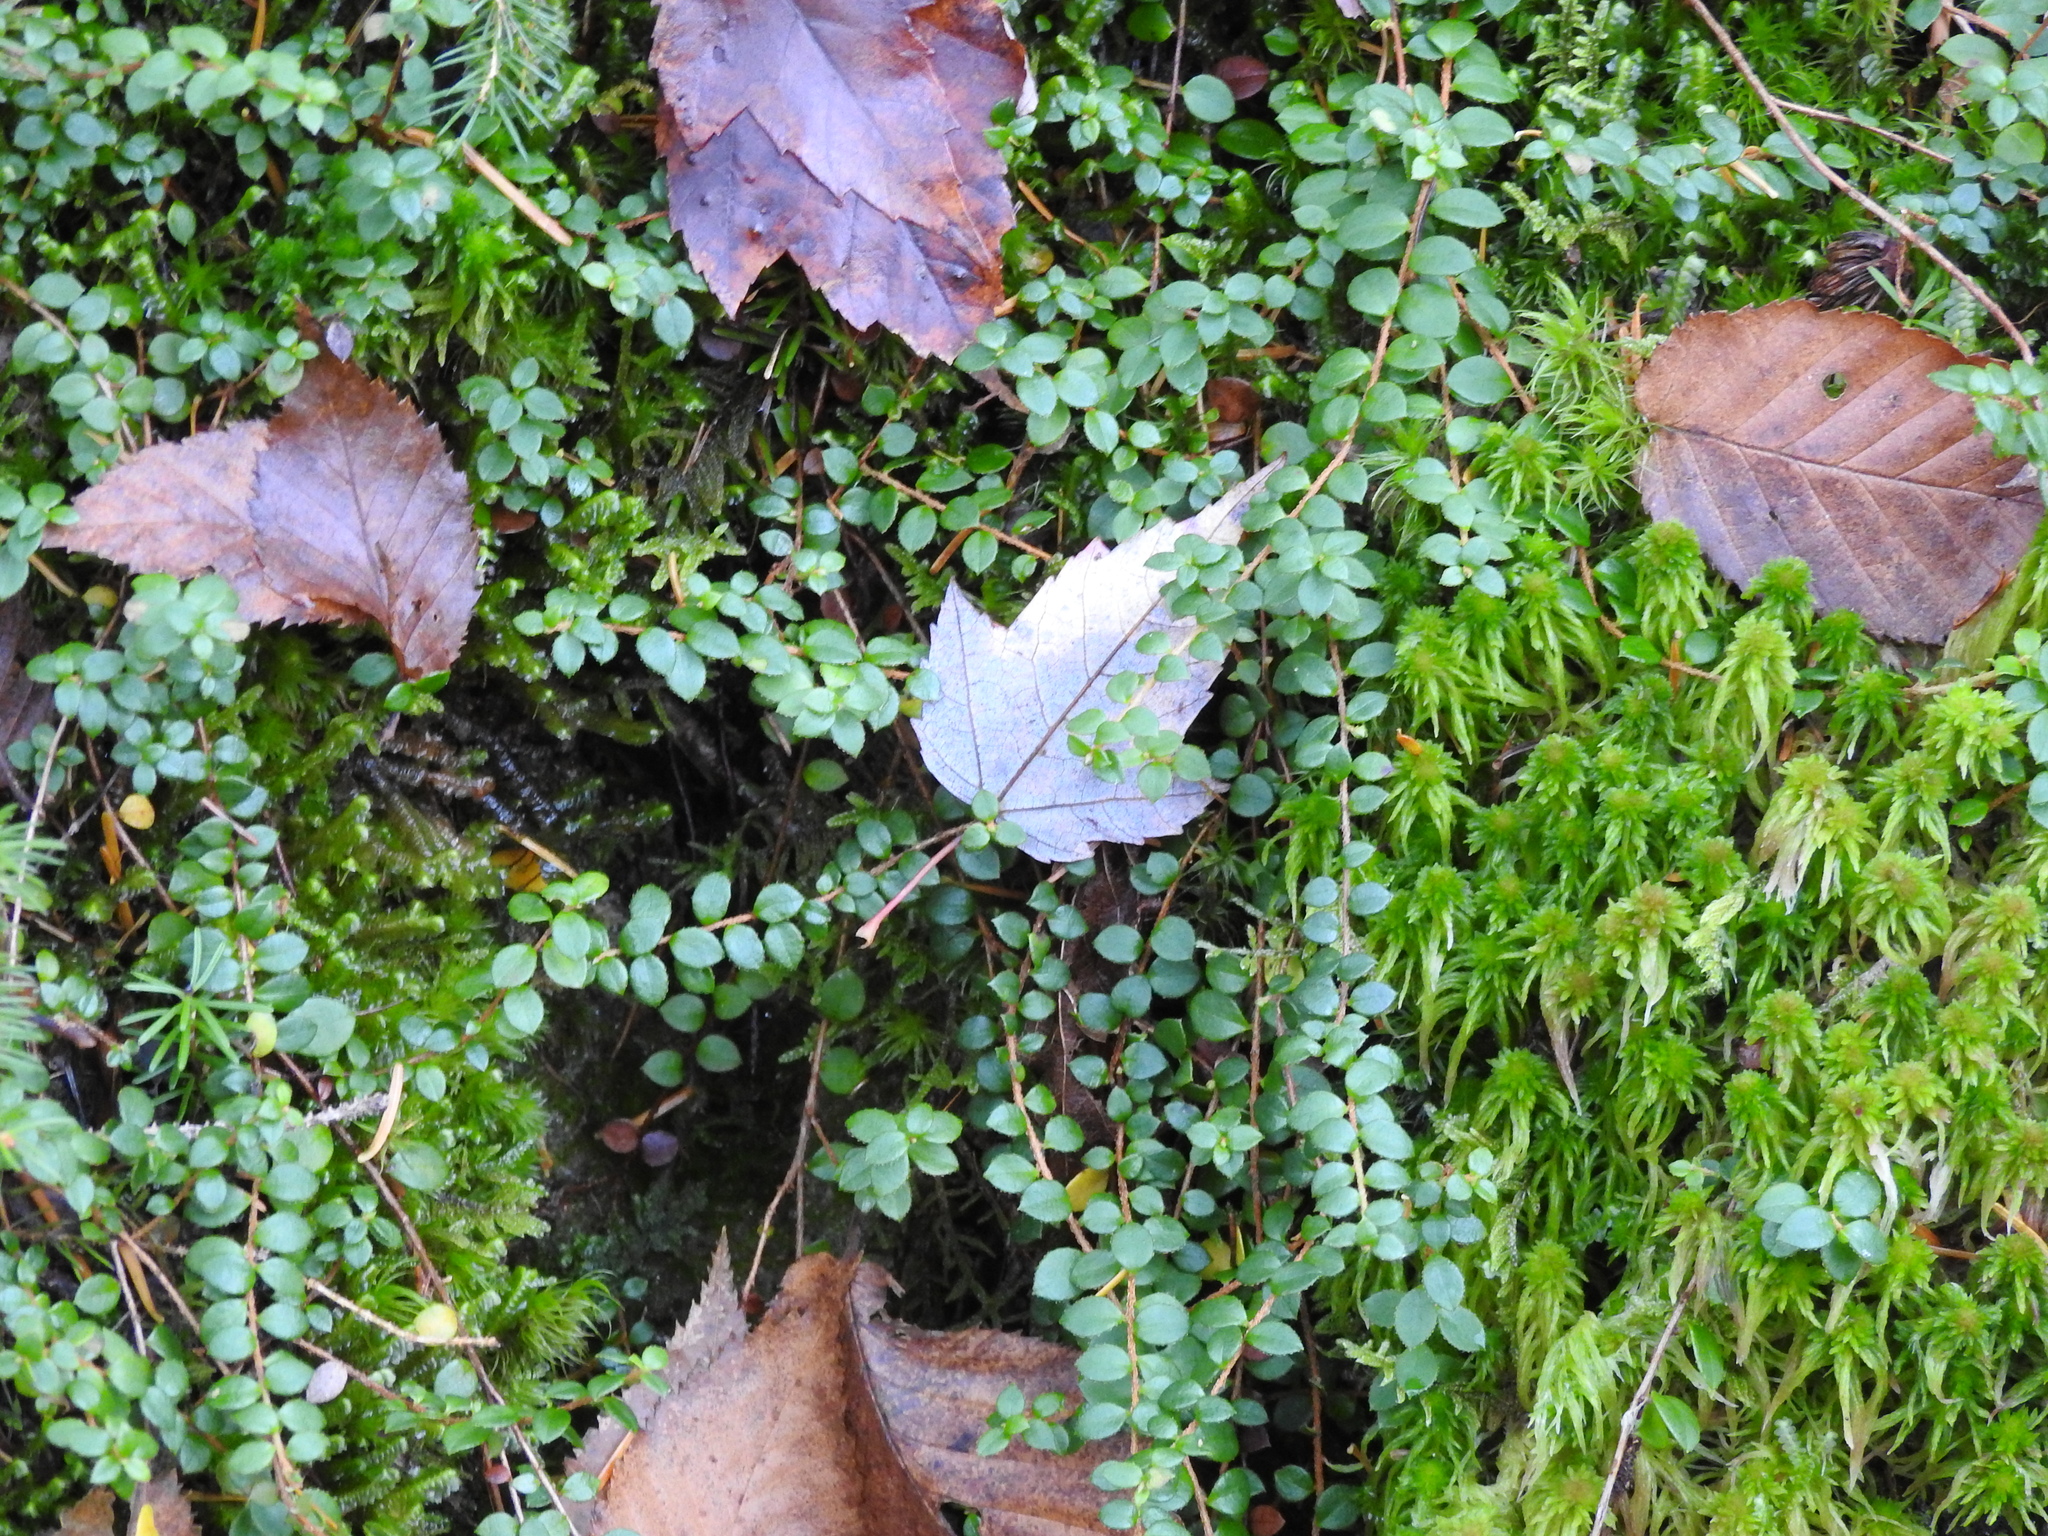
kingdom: Plantae
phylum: Tracheophyta
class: Magnoliopsida
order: Ericales
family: Ericaceae
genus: Gaultheria
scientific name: Gaultheria hispidula
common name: Cancer wintergreen
